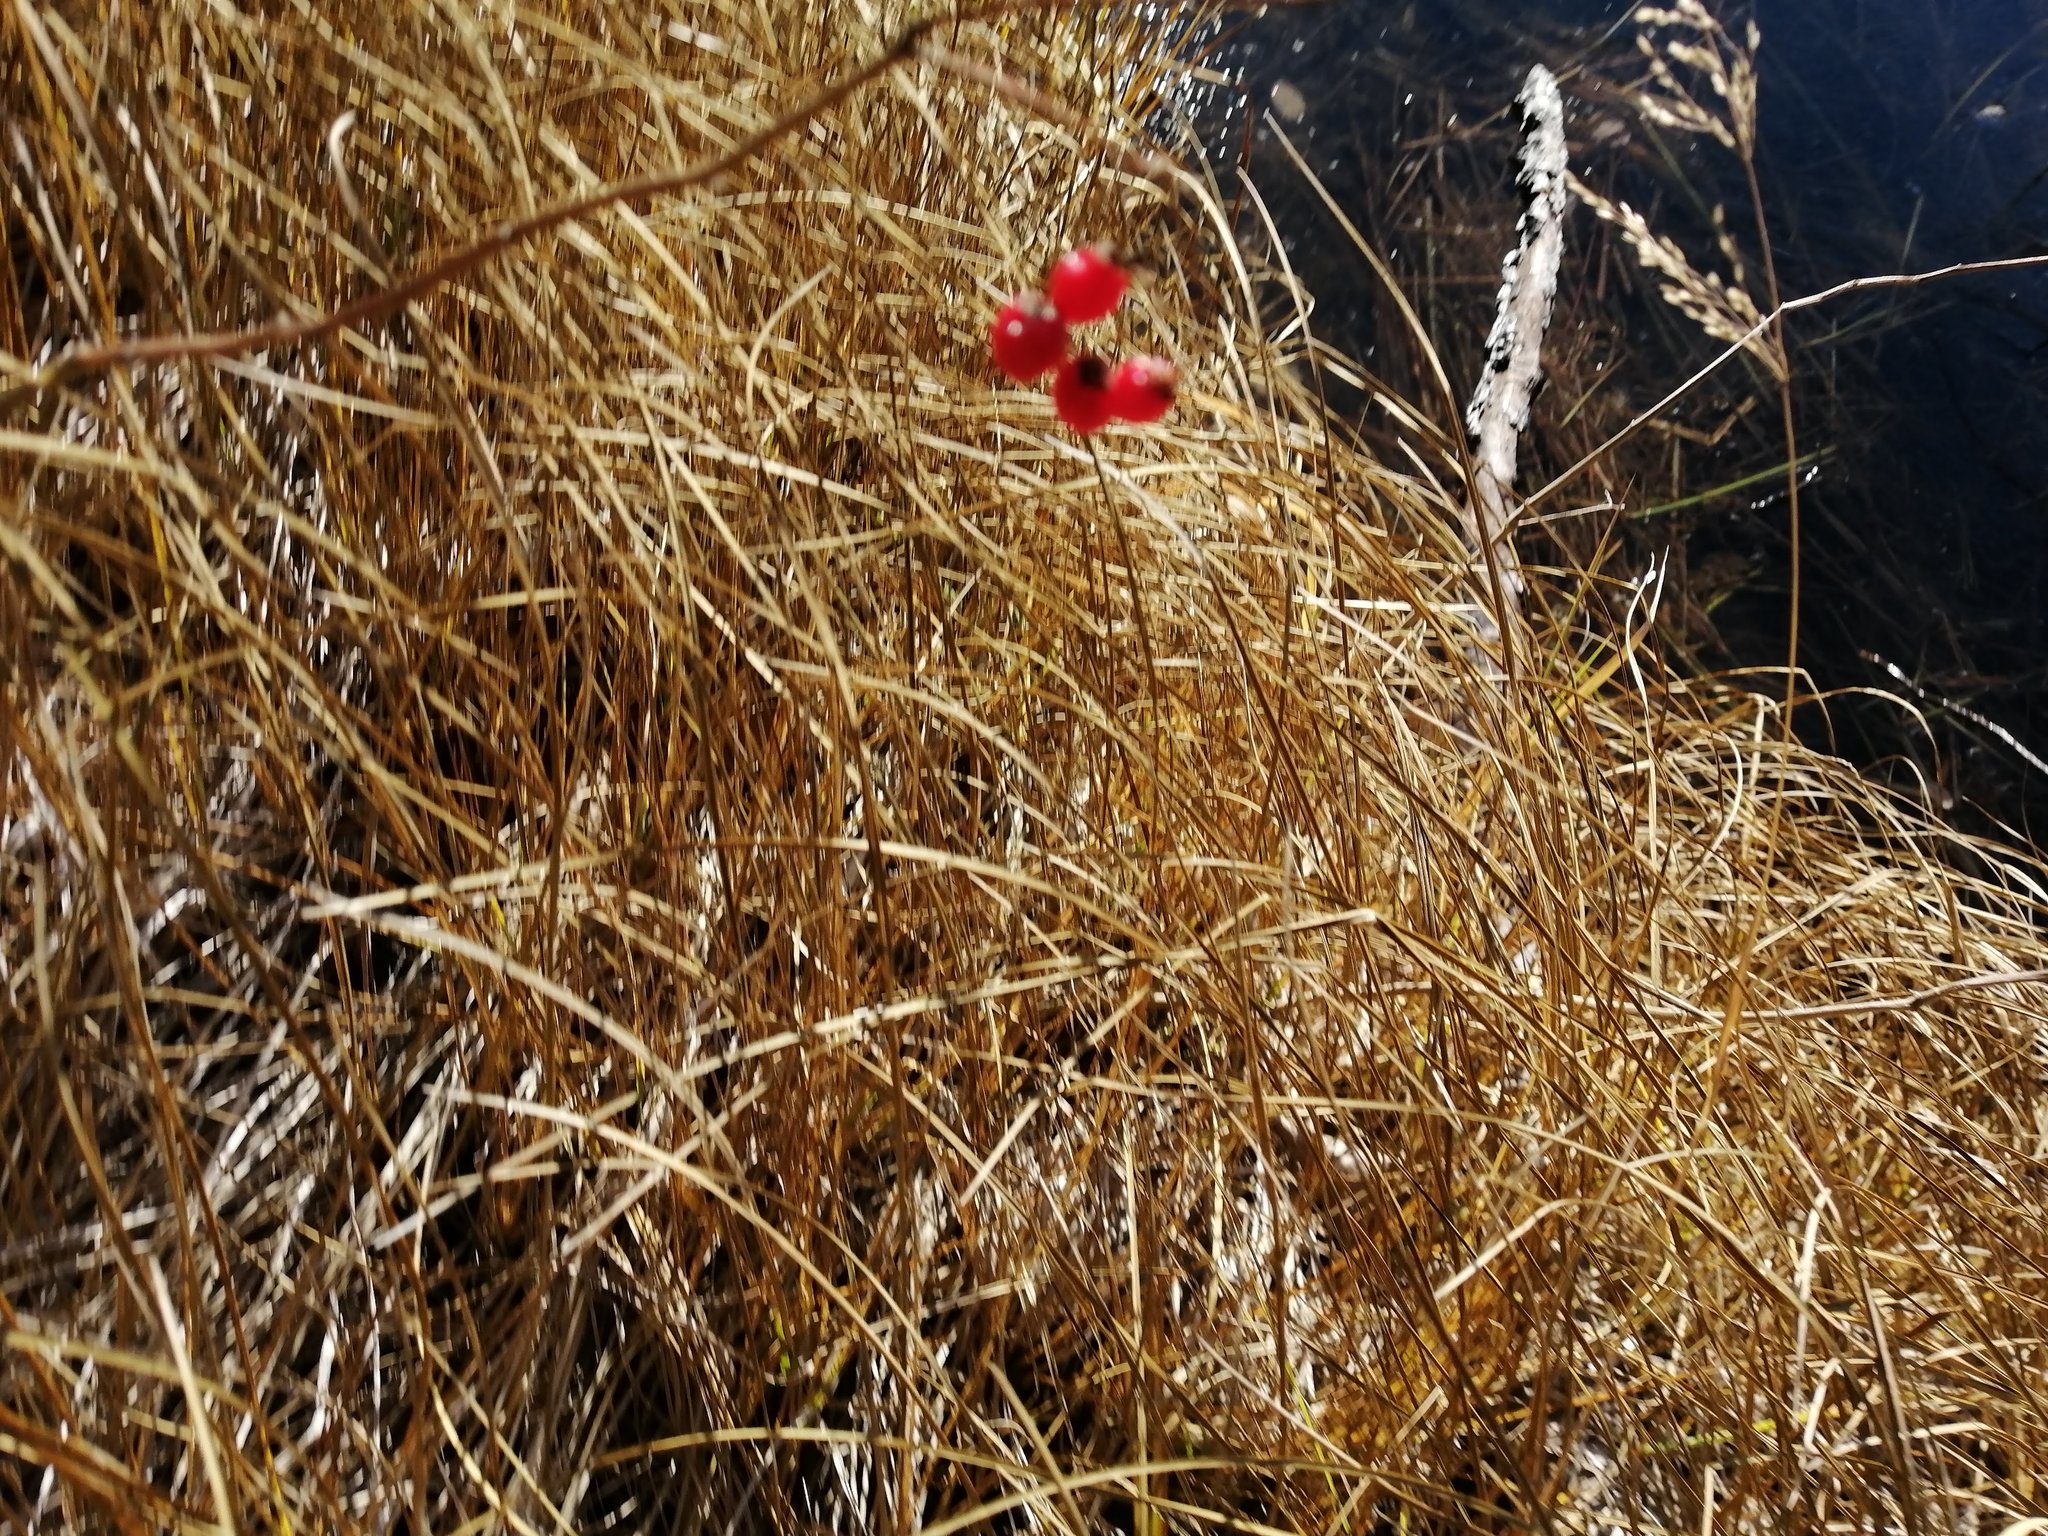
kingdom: Plantae
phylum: Tracheophyta
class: Magnoliopsida
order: Solanales
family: Solanaceae
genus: Solanum
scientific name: Solanum dulcamara
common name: Climbing nightshade
